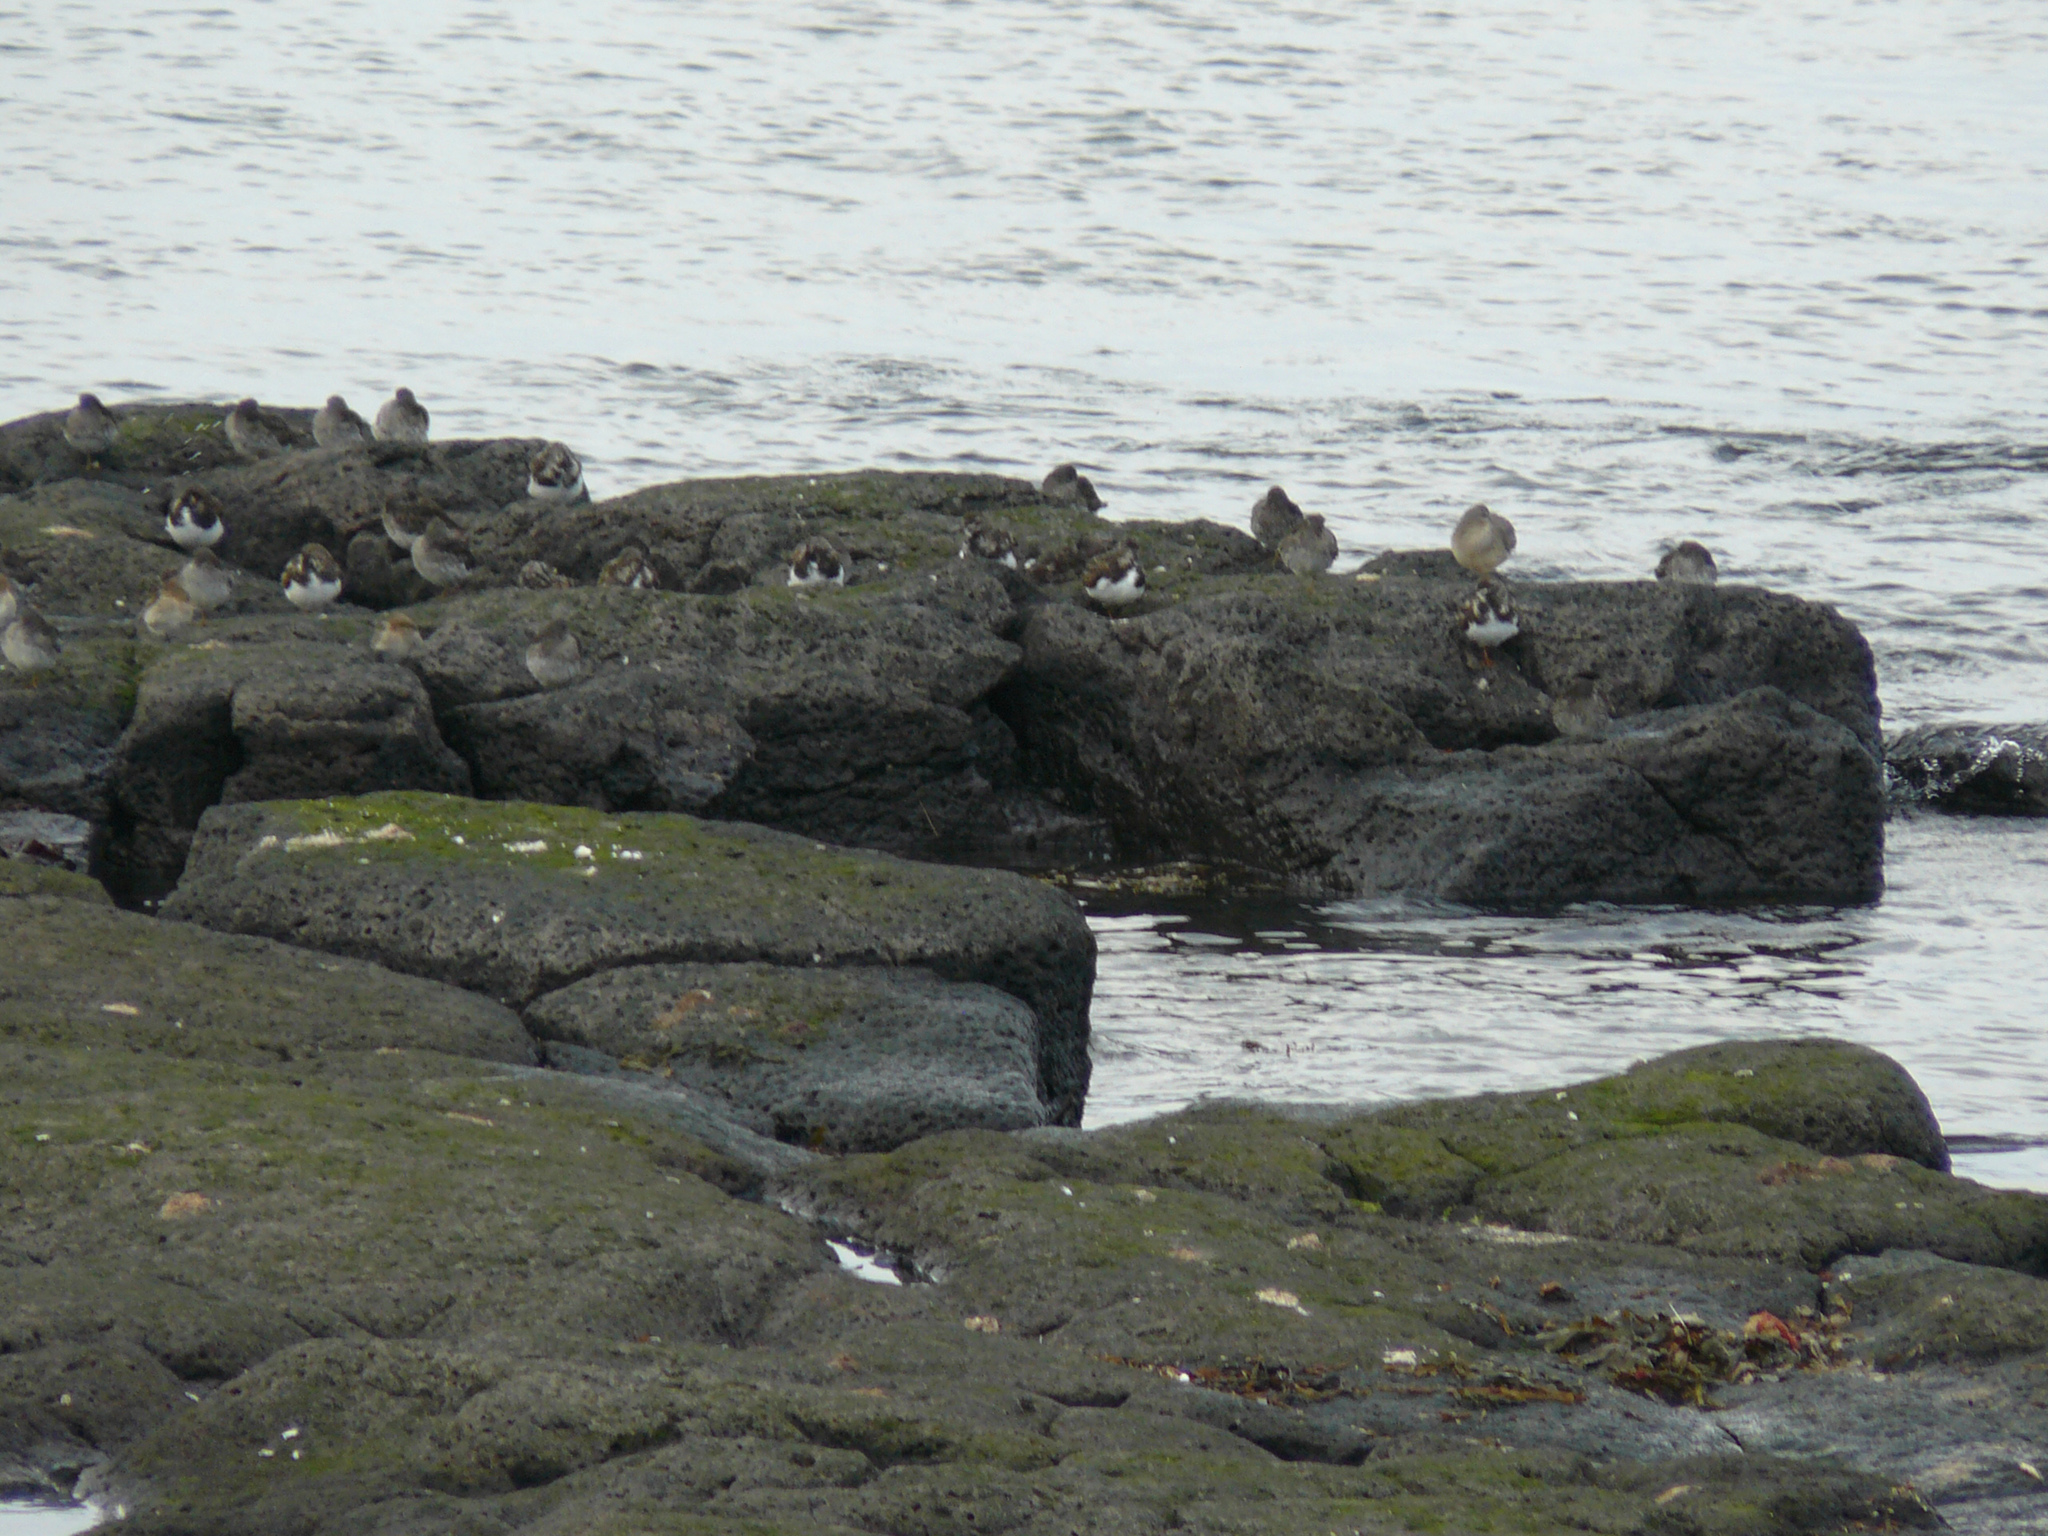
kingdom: Animalia
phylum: Chordata
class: Aves
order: Charadriiformes
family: Scolopacidae
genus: Arenaria
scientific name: Arenaria interpres
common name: Ruddy turnstone
